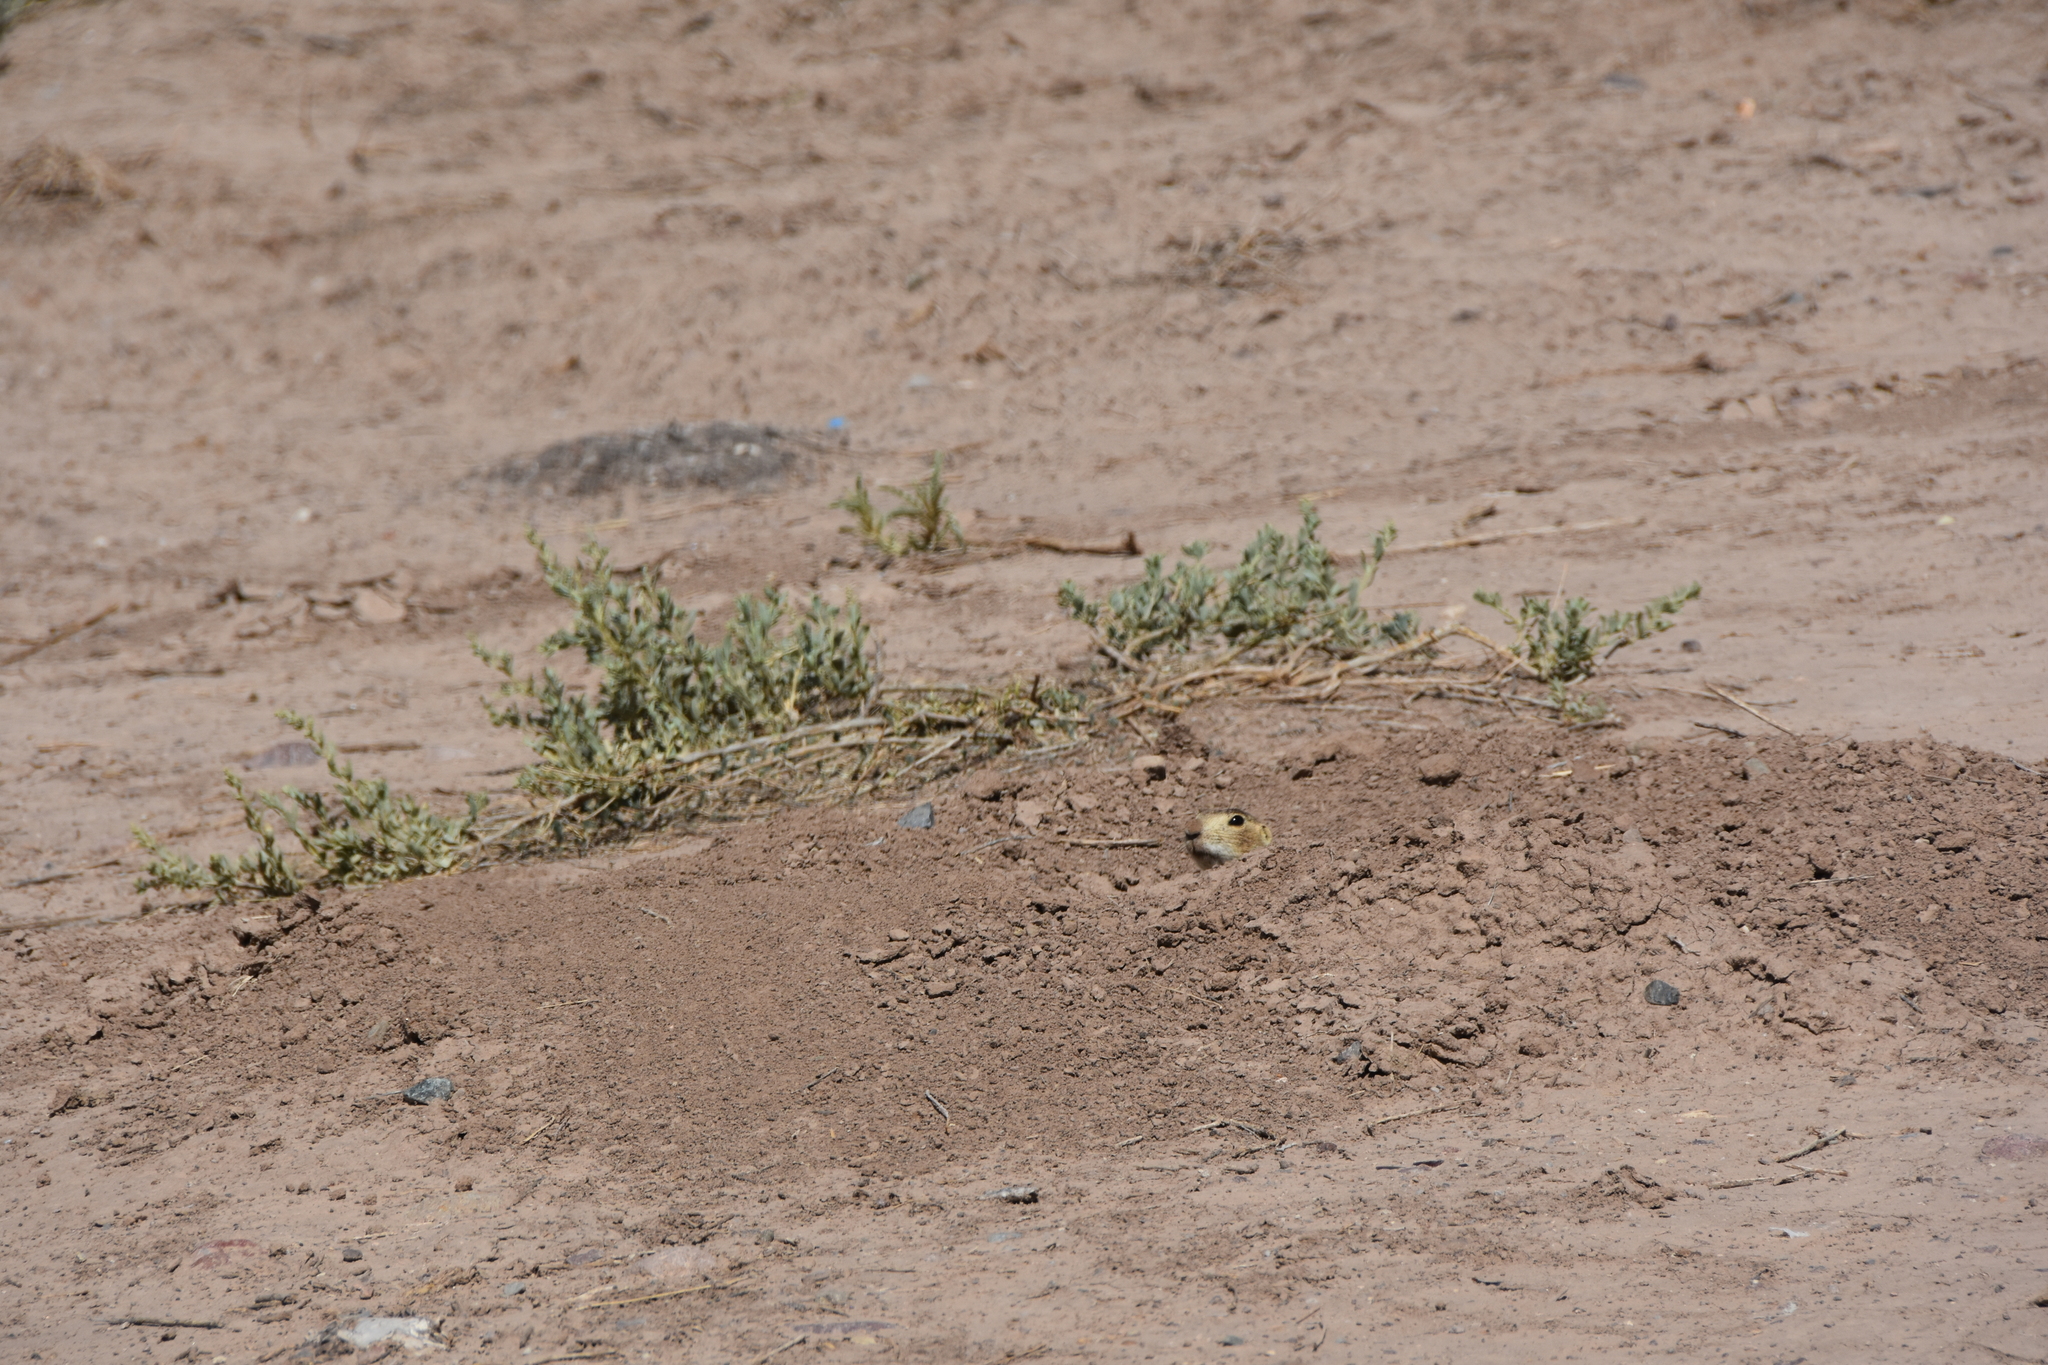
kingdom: Animalia
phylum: Chordata
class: Mammalia
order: Rodentia
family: Sciuridae
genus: Cynomys
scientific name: Cynomys gunnisoni
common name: Gunnison's prairie dog
